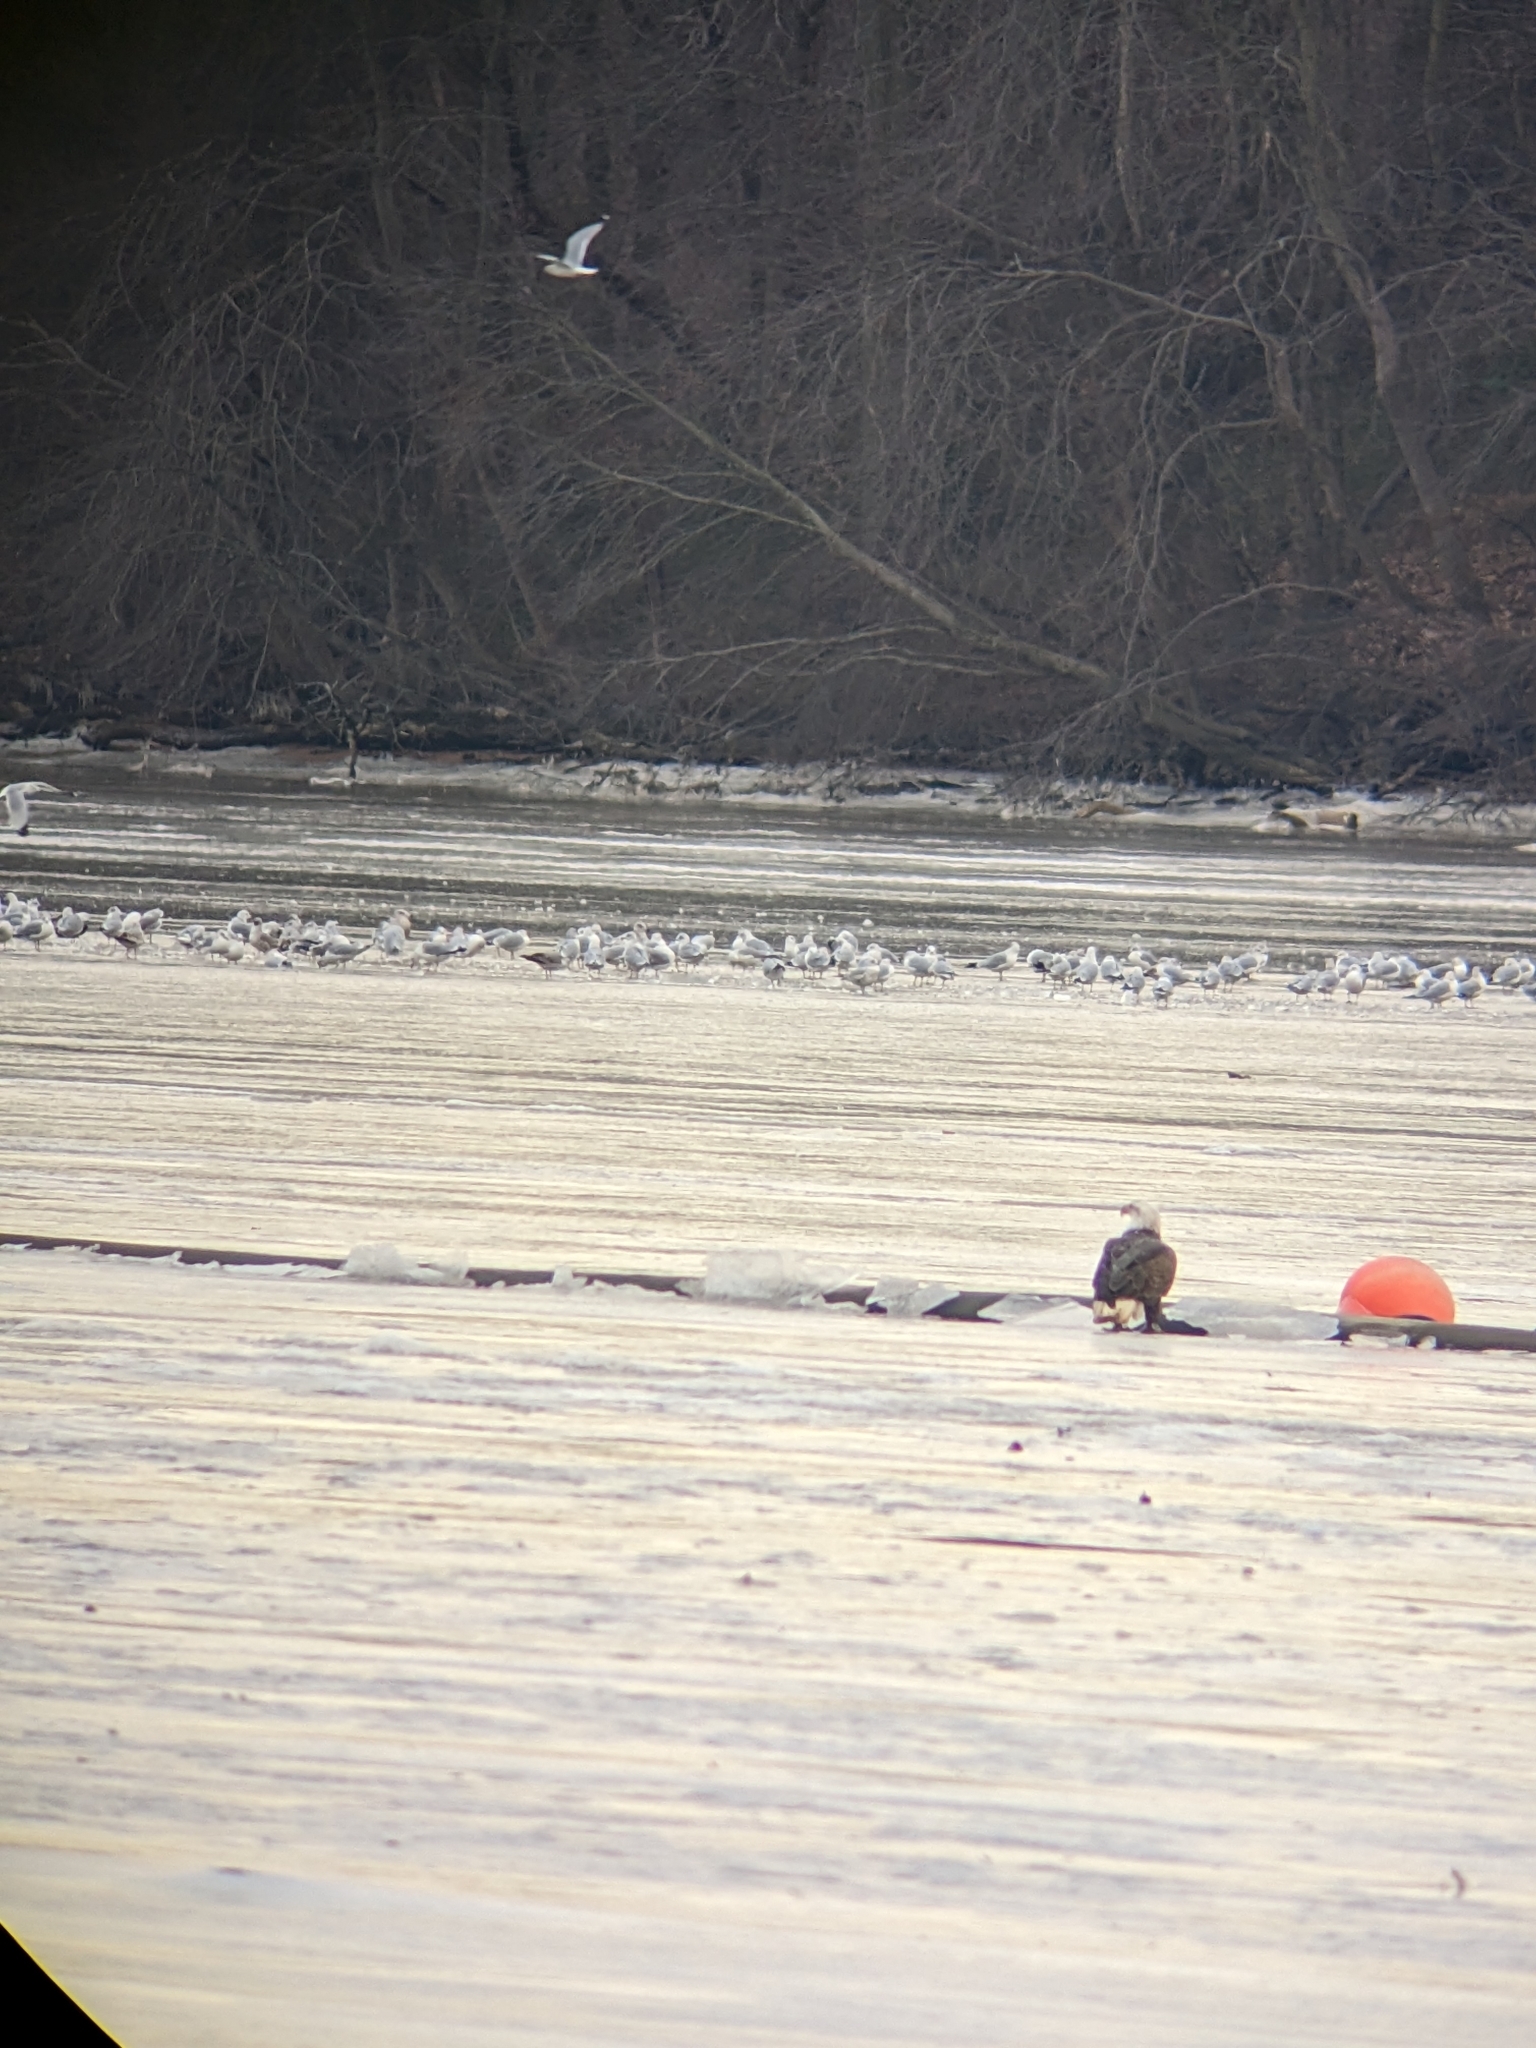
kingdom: Animalia
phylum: Chordata
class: Aves
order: Accipitriformes
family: Accipitridae
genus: Haliaeetus
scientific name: Haliaeetus leucocephalus
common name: Bald eagle
